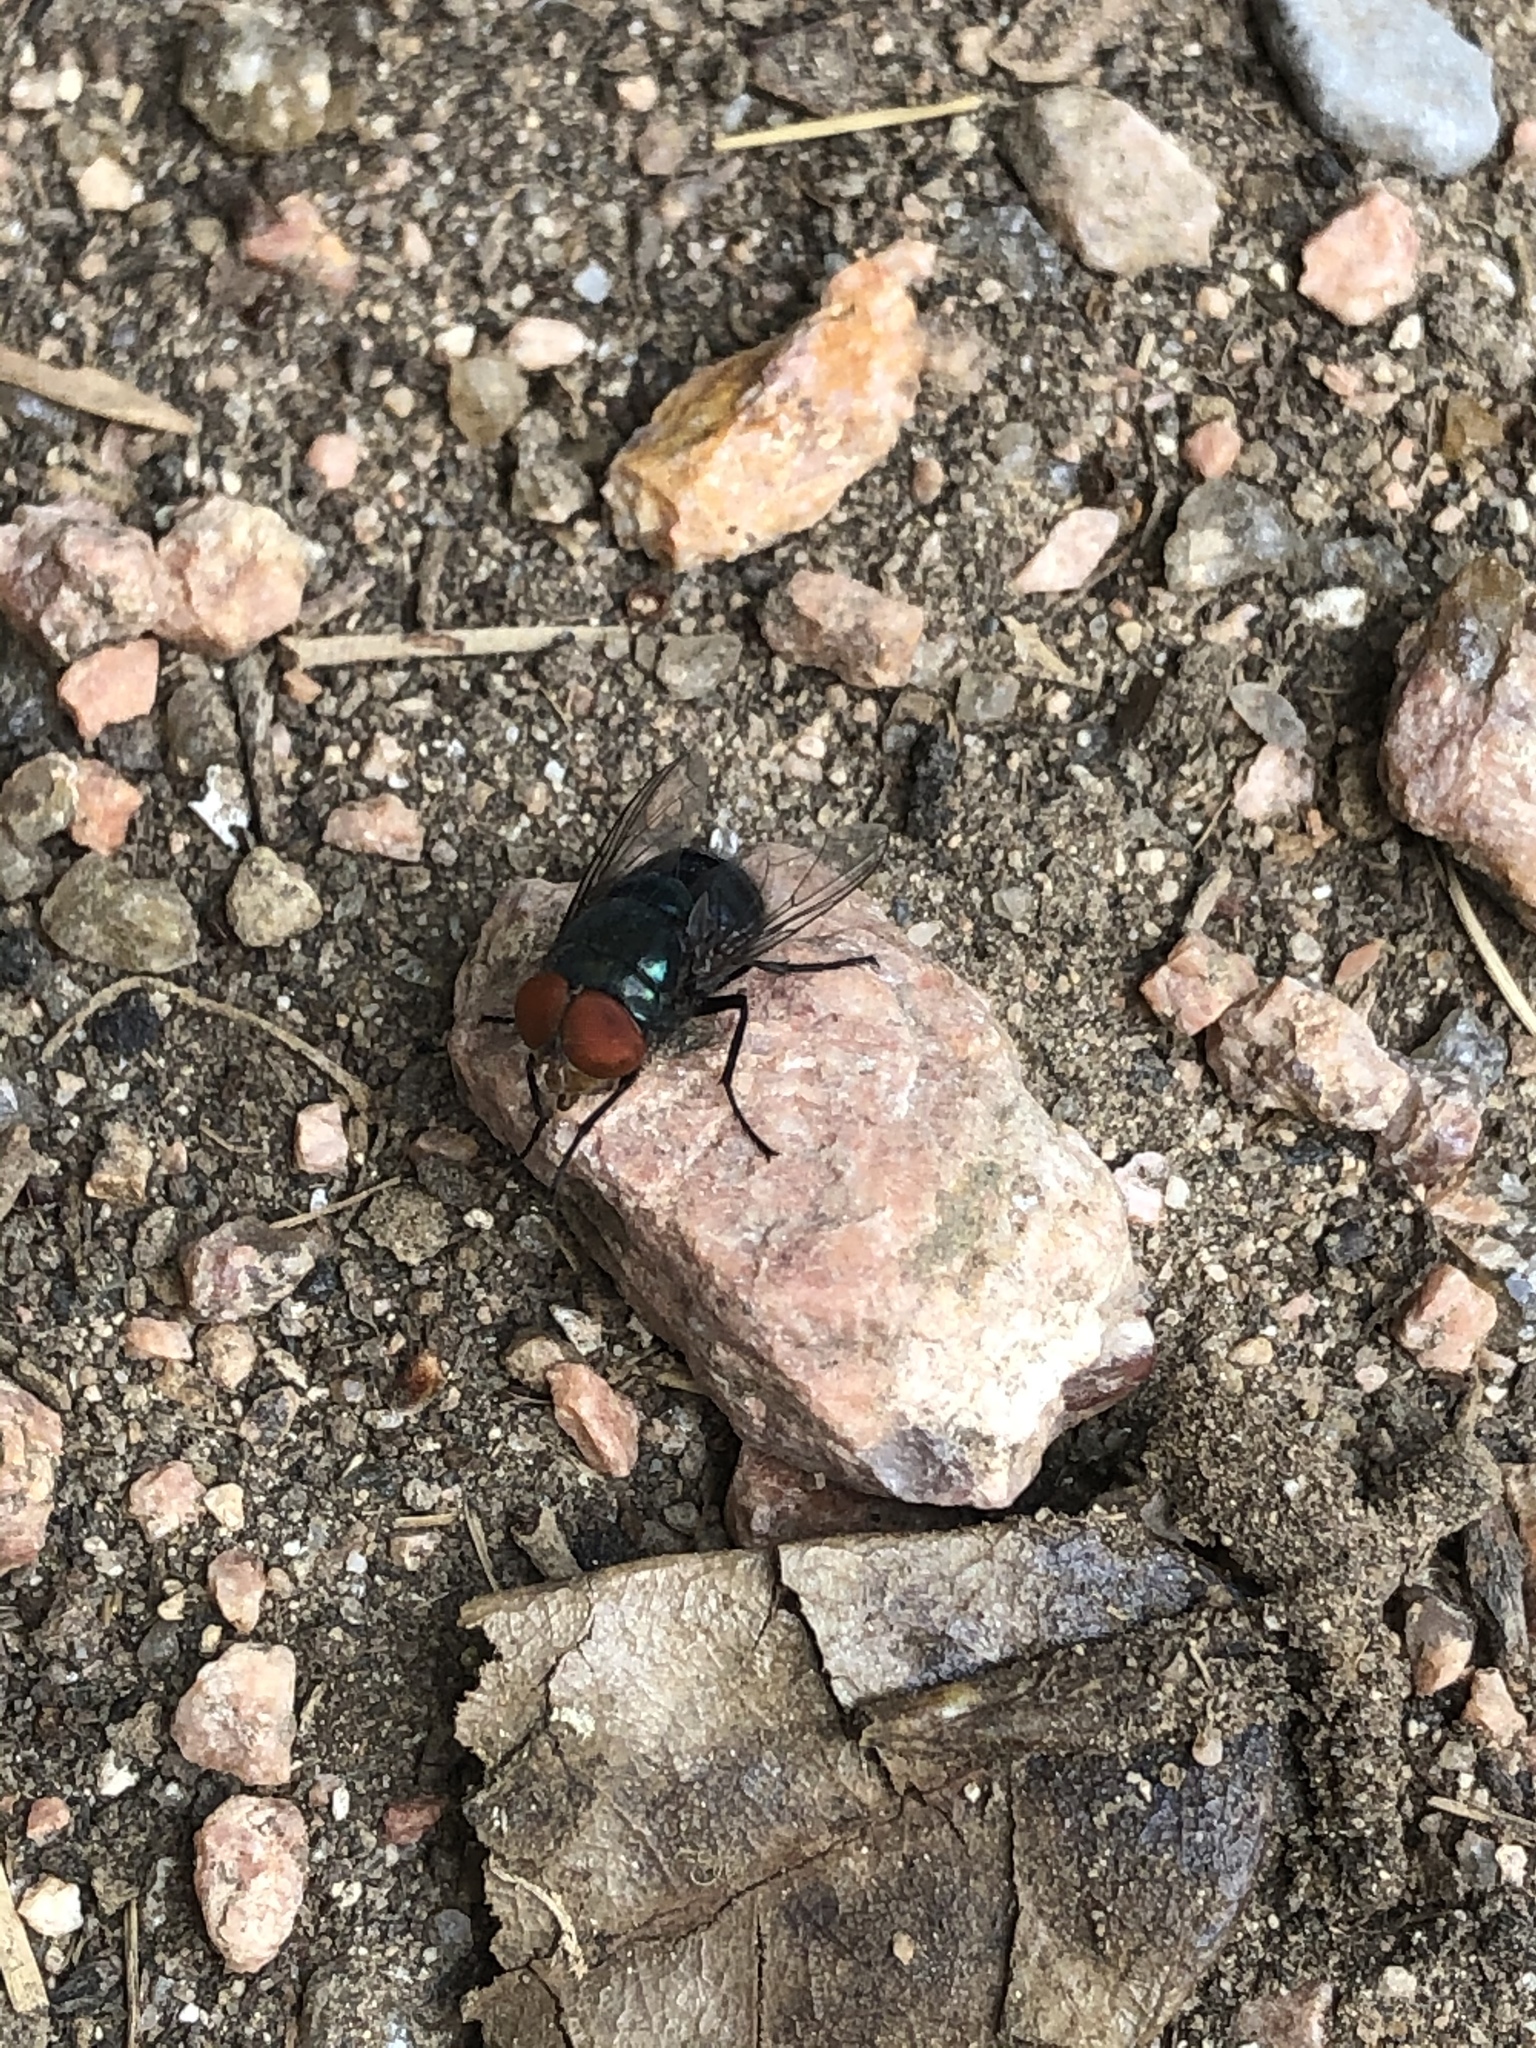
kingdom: Animalia
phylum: Arthropoda
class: Insecta
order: Diptera
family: Calliphoridae
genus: Chrysomya
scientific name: Chrysomya megacephala
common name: Blow fly
